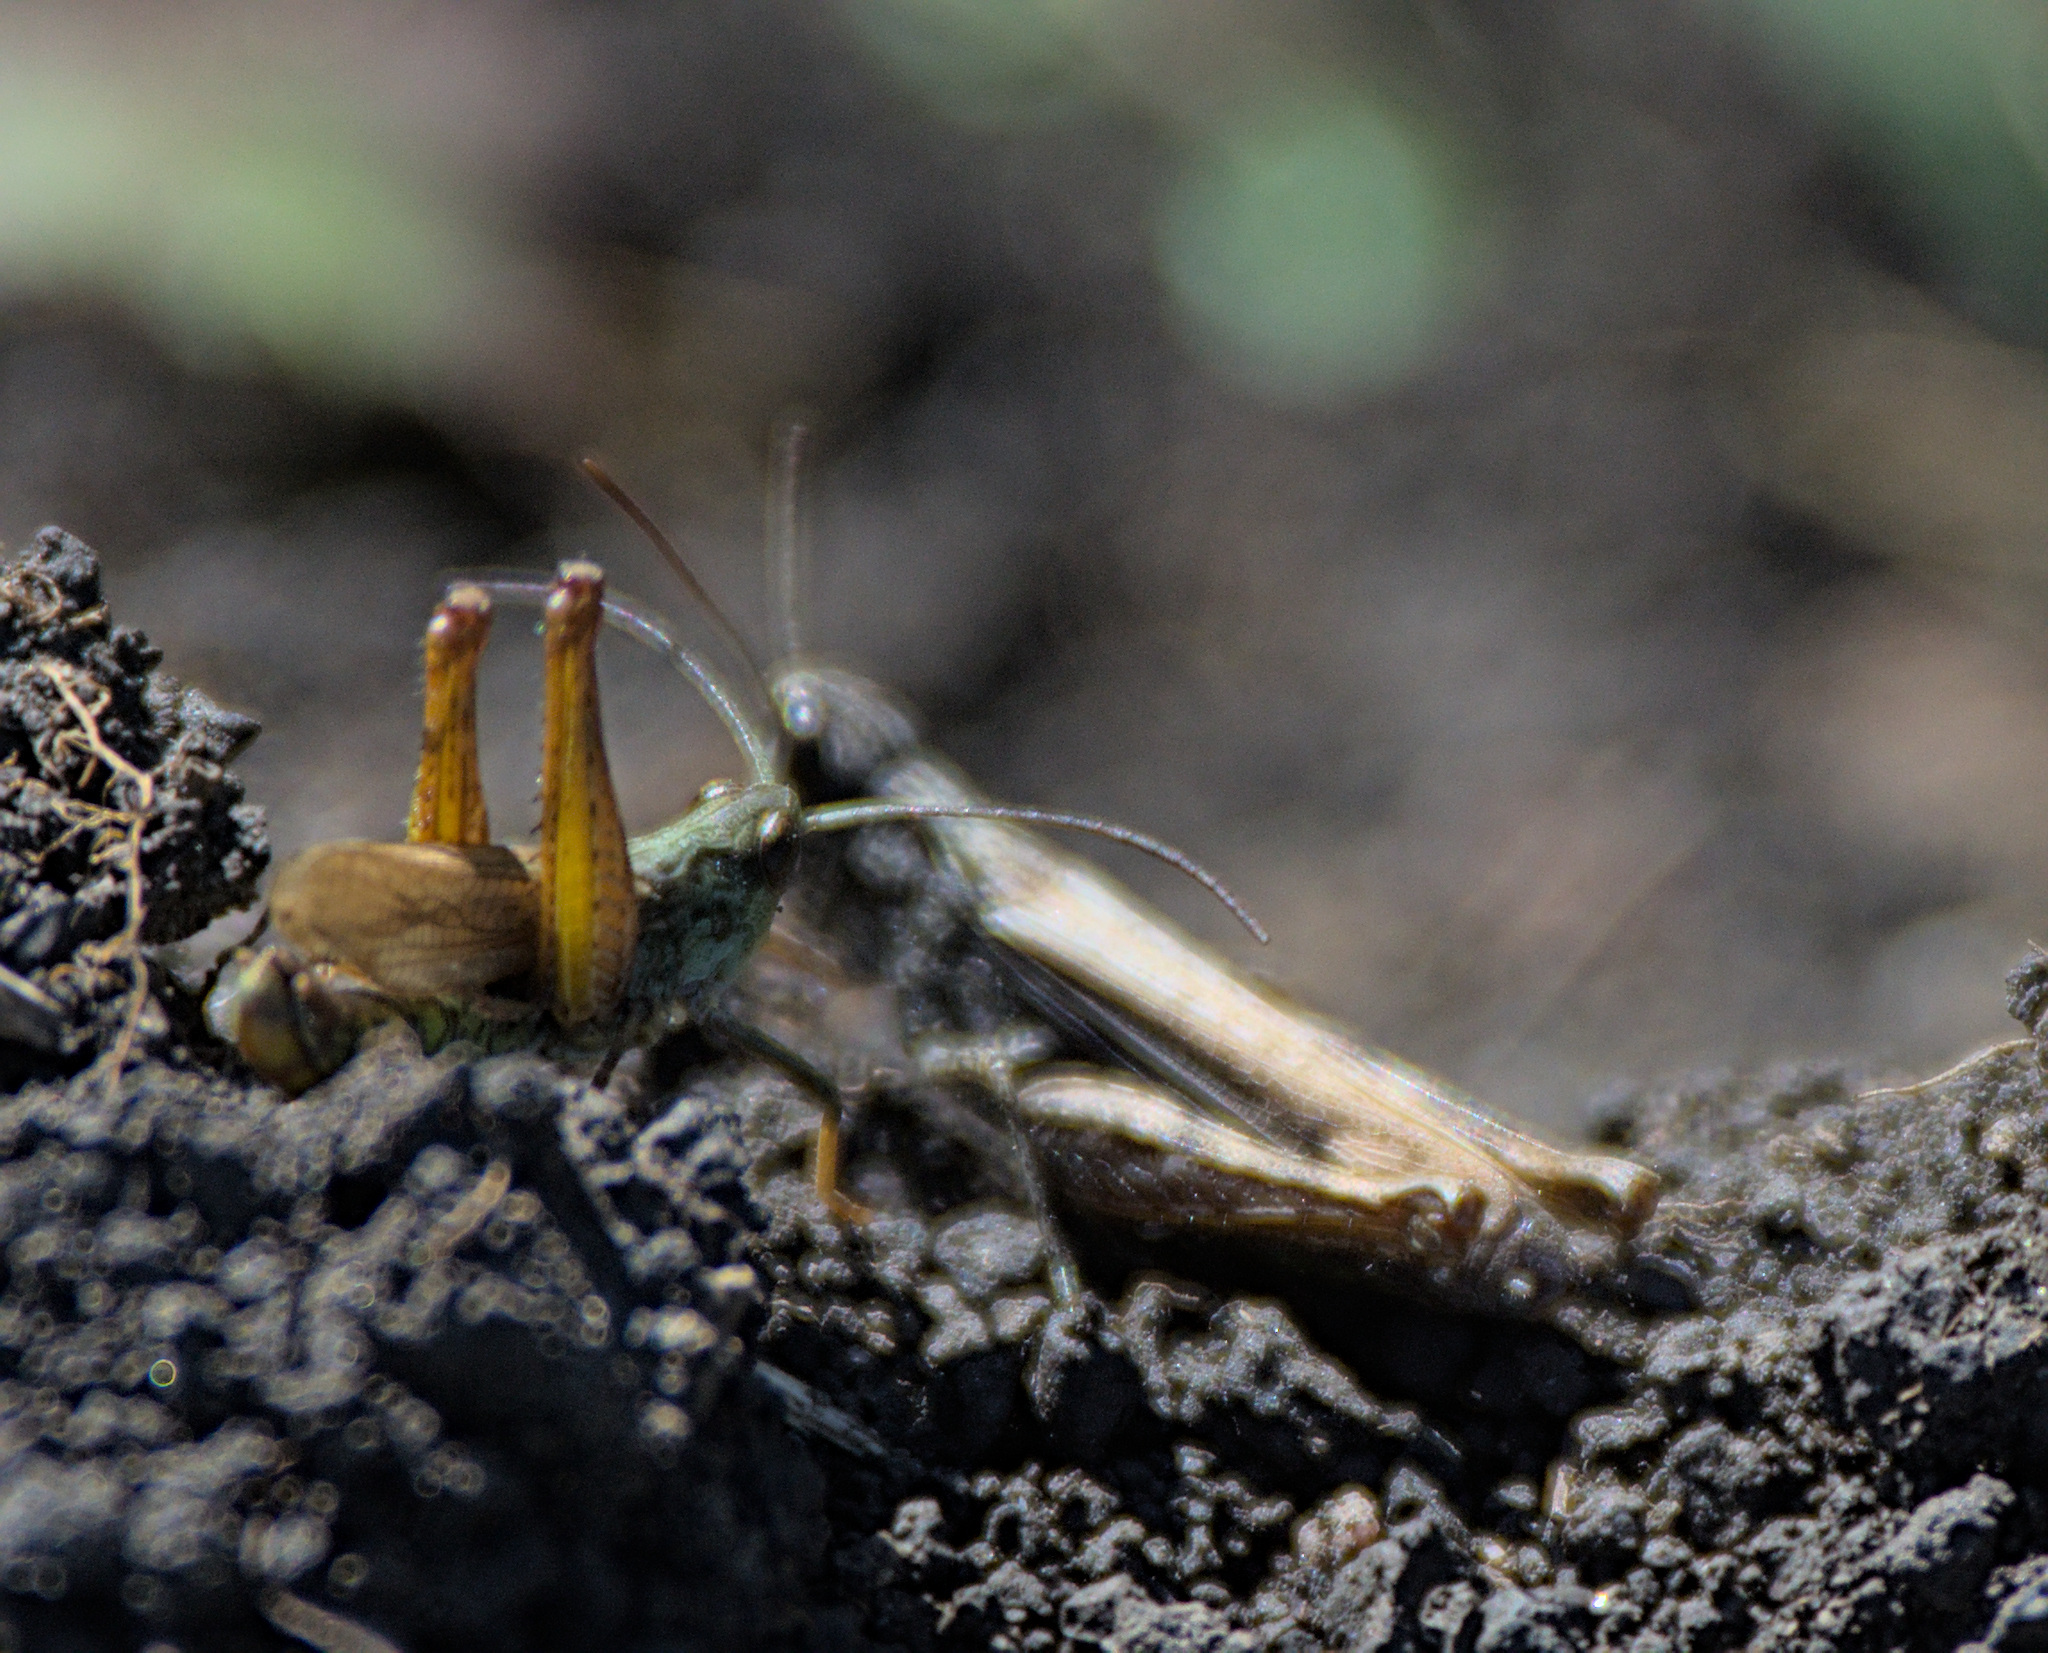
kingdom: Animalia
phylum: Arthropoda
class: Insecta
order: Orthoptera
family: Acrididae
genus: Chorthippus
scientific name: Chorthippus apricarius
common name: Upland field grasshopper
